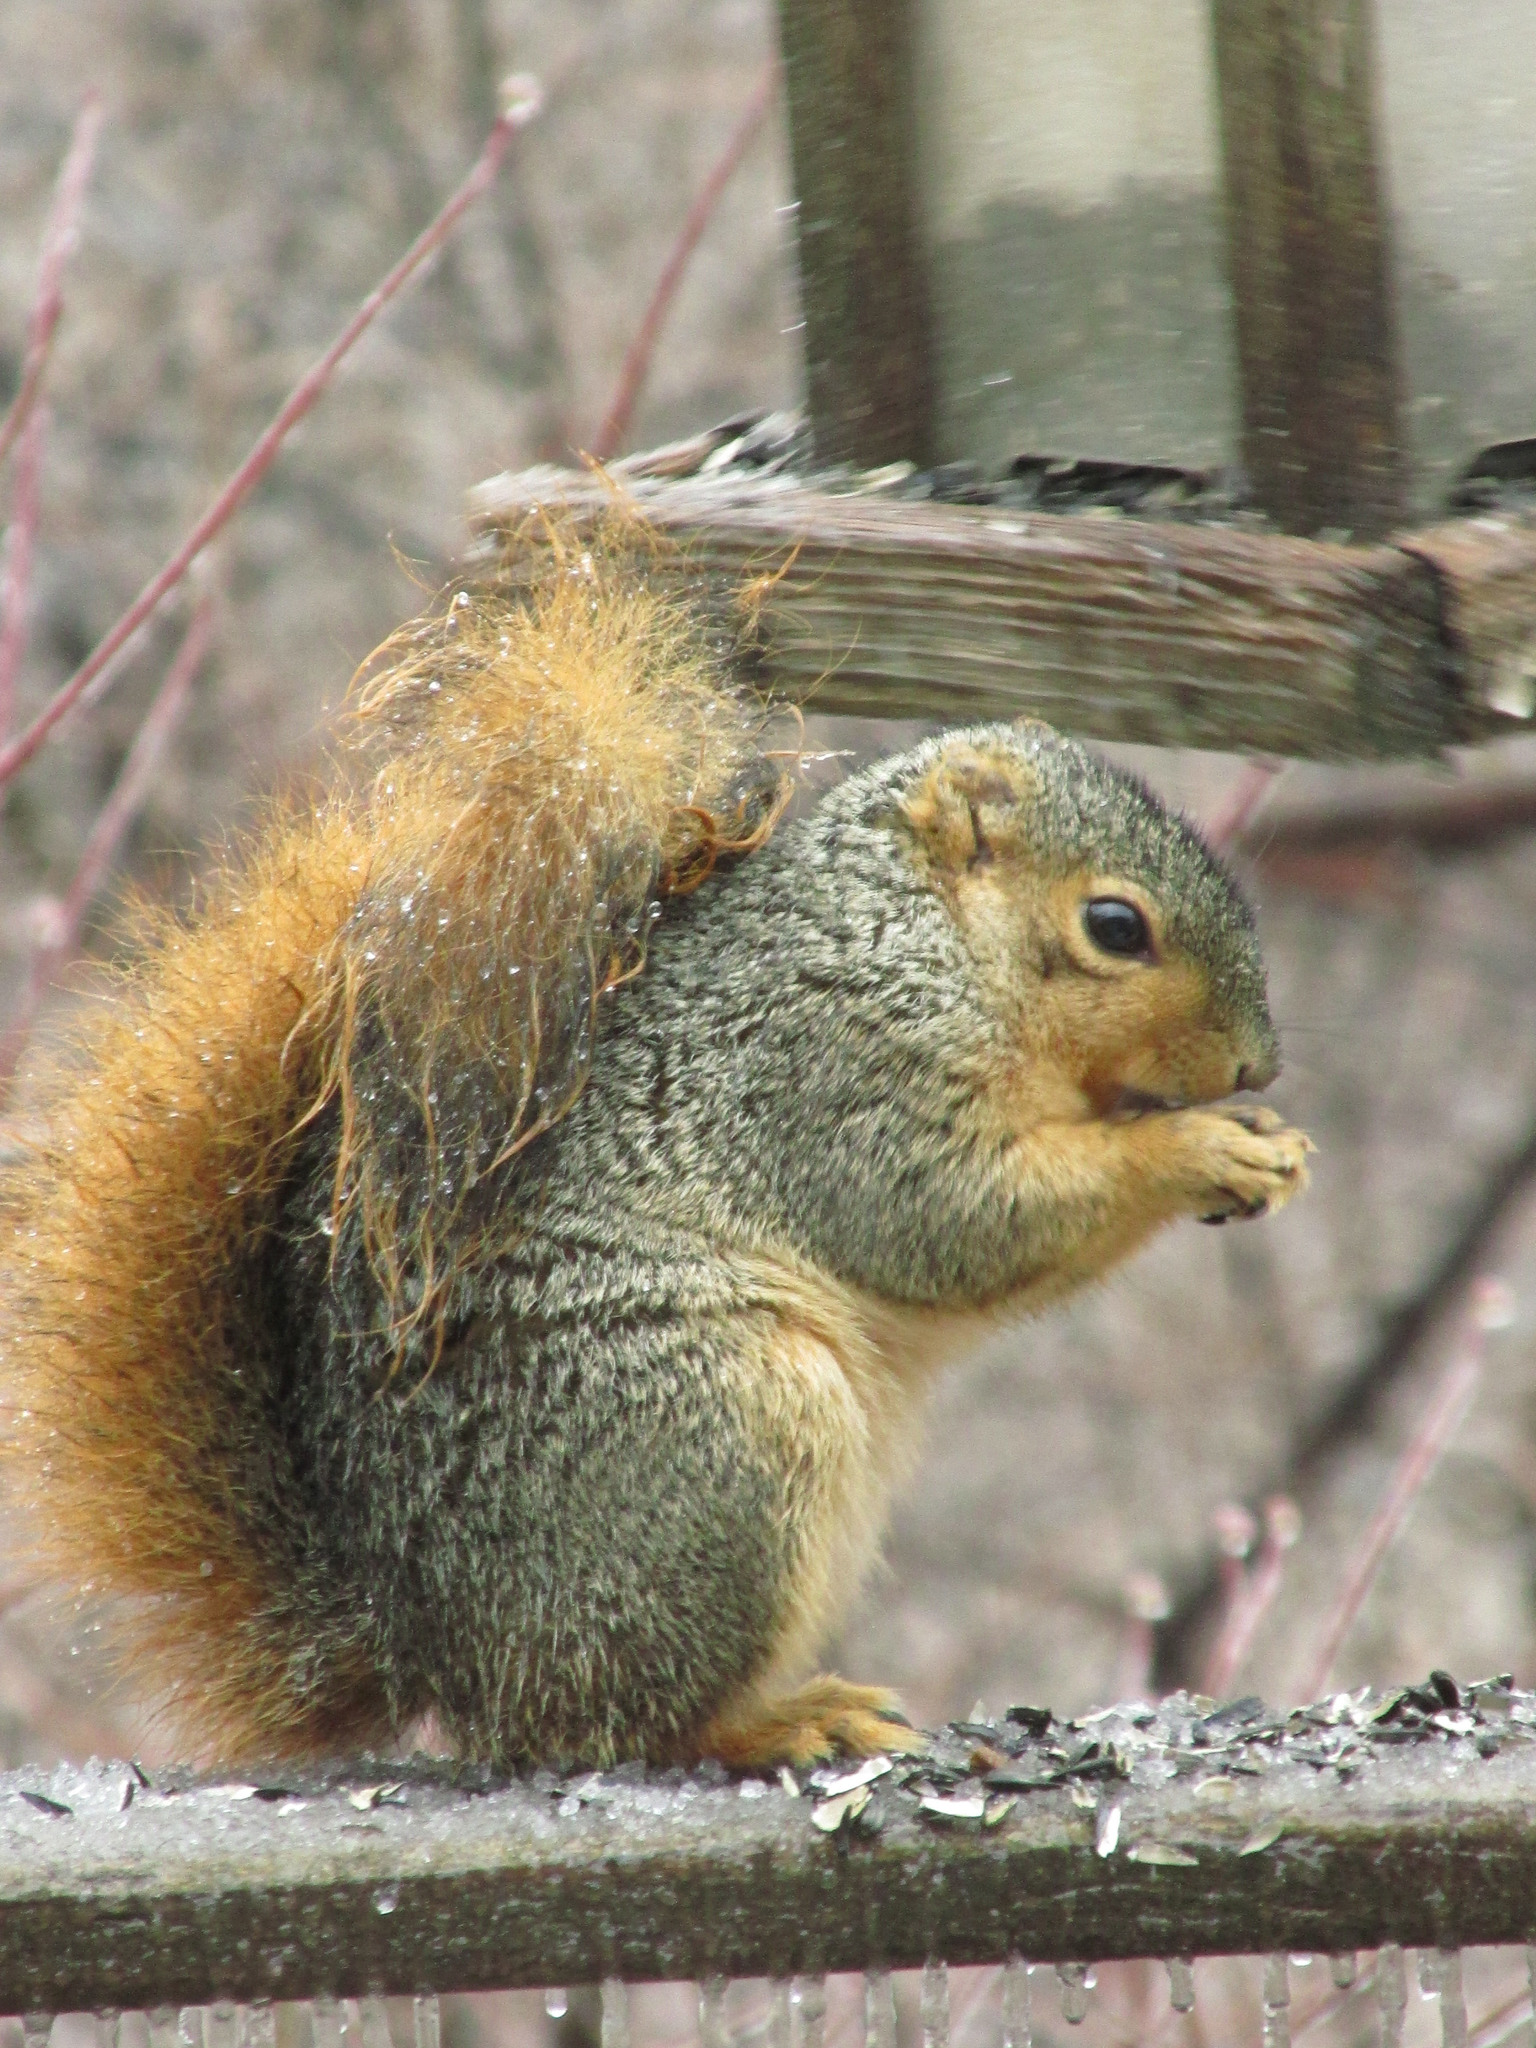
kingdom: Animalia
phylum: Chordata
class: Mammalia
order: Rodentia
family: Sciuridae
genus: Sciurus
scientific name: Sciurus niger
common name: Fox squirrel
